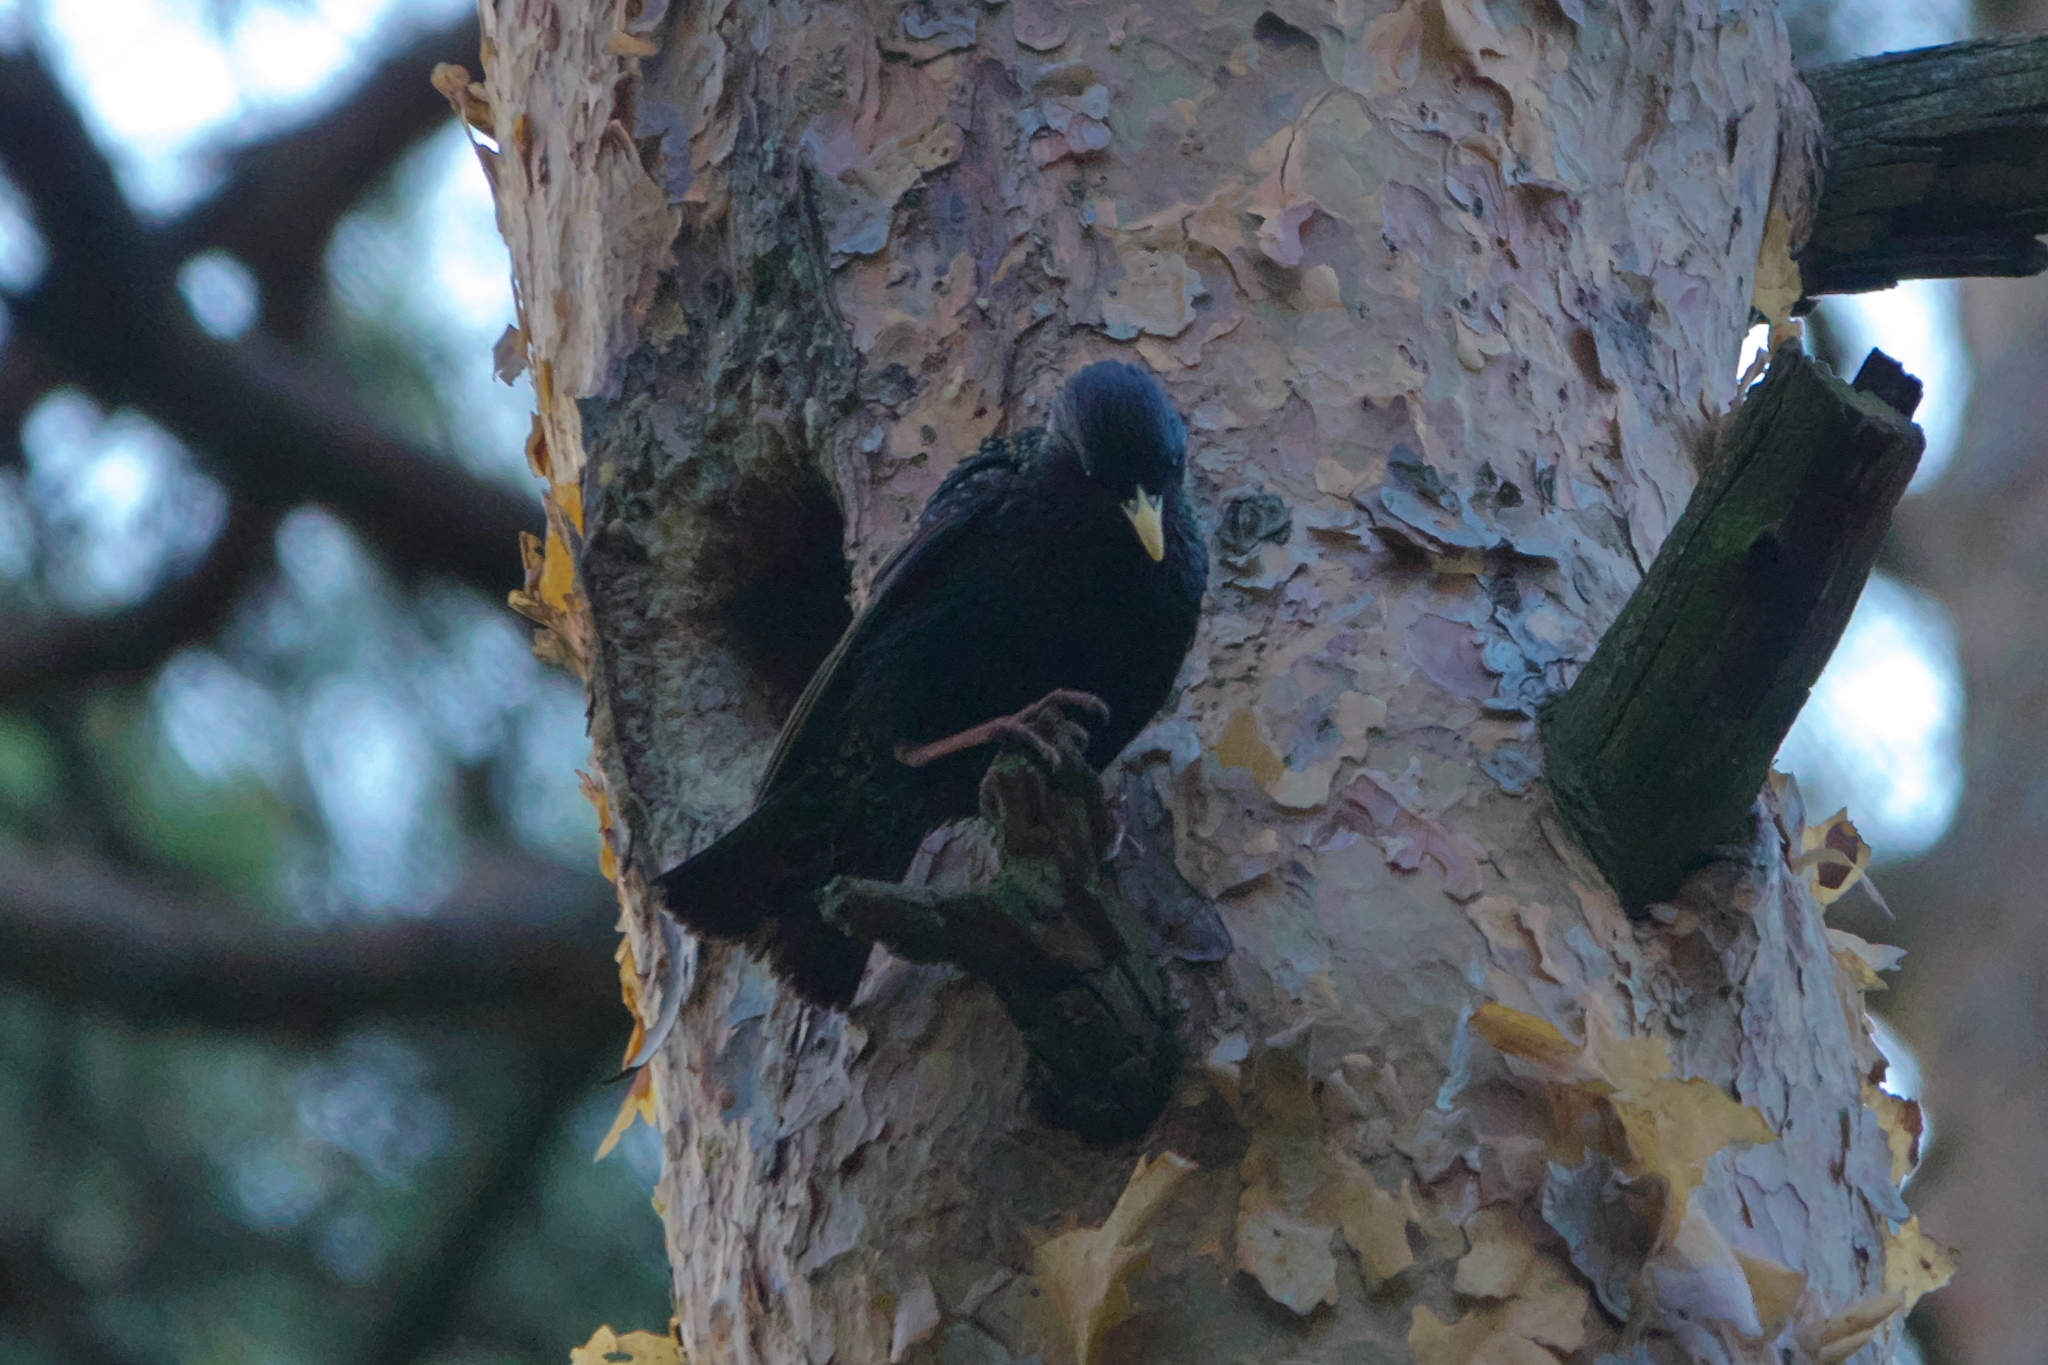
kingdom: Animalia
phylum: Chordata
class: Aves
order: Passeriformes
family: Sturnidae
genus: Sturnus
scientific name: Sturnus vulgaris
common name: Common starling
